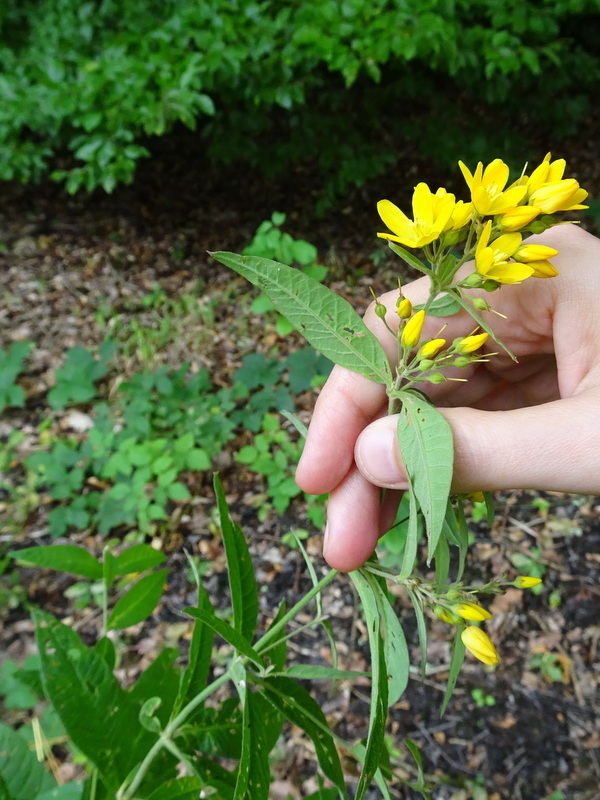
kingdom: Plantae
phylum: Tracheophyta
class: Magnoliopsida
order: Ericales
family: Primulaceae
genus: Lysimachia
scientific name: Lysimachia vulgaris
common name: Yellow loosestrife
